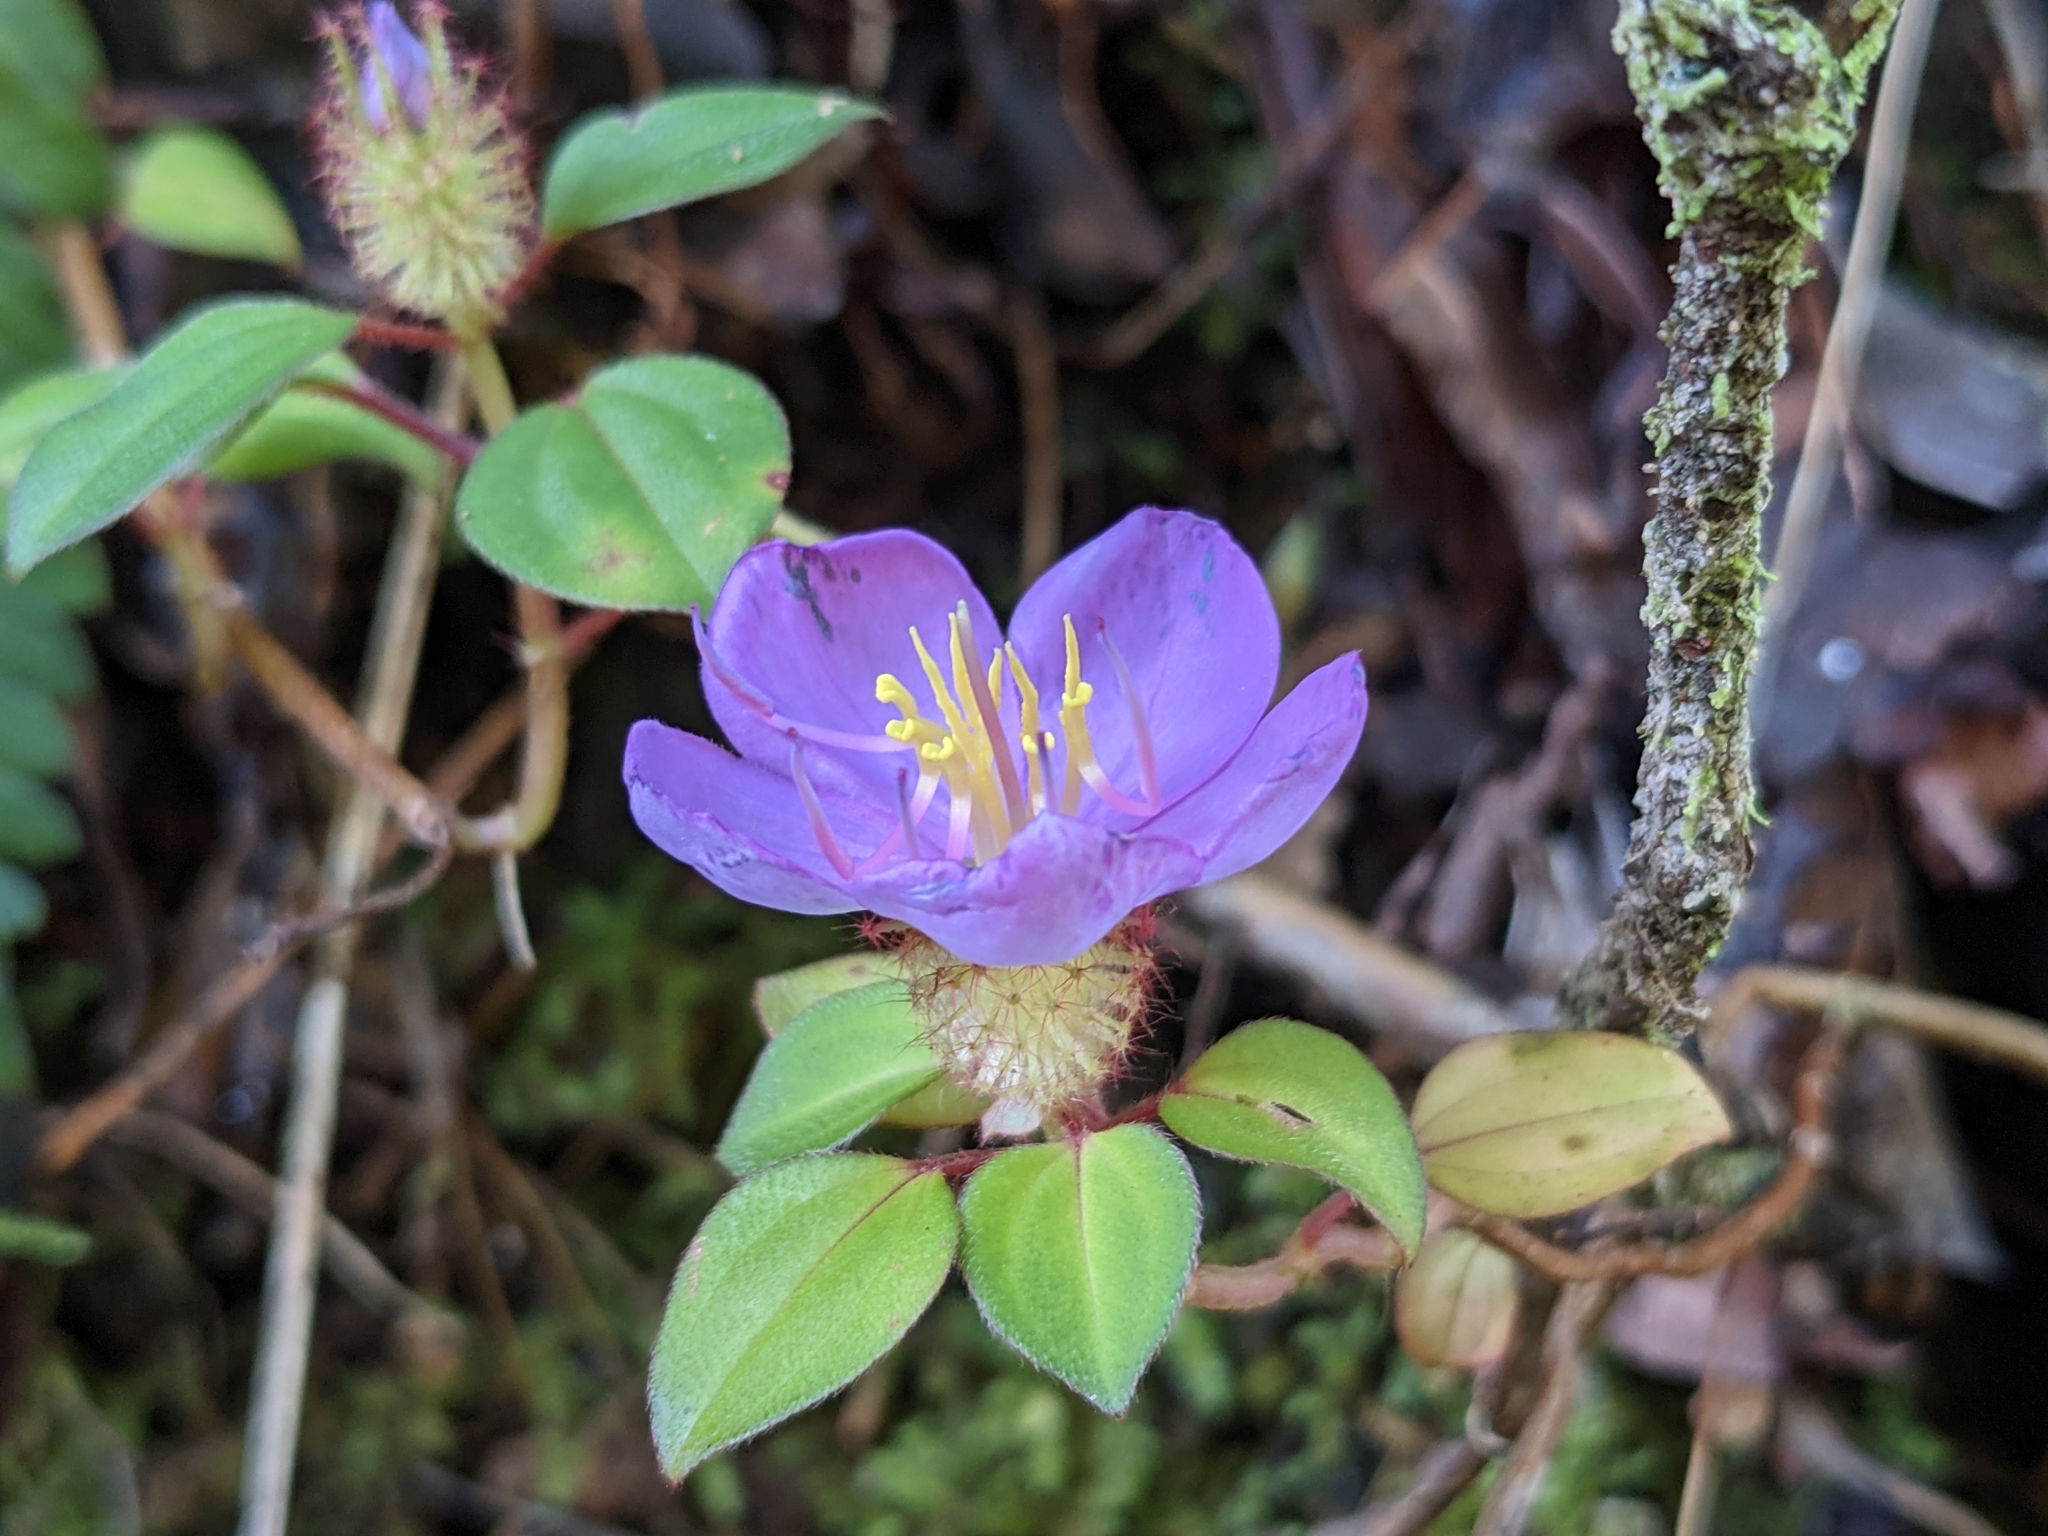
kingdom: Plantae
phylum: Tracheophyta
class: Magnoliopsida
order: Myrtales
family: Melastomataceae
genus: Heterotis
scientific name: Heterotis rotundifolia
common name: Pinklady
